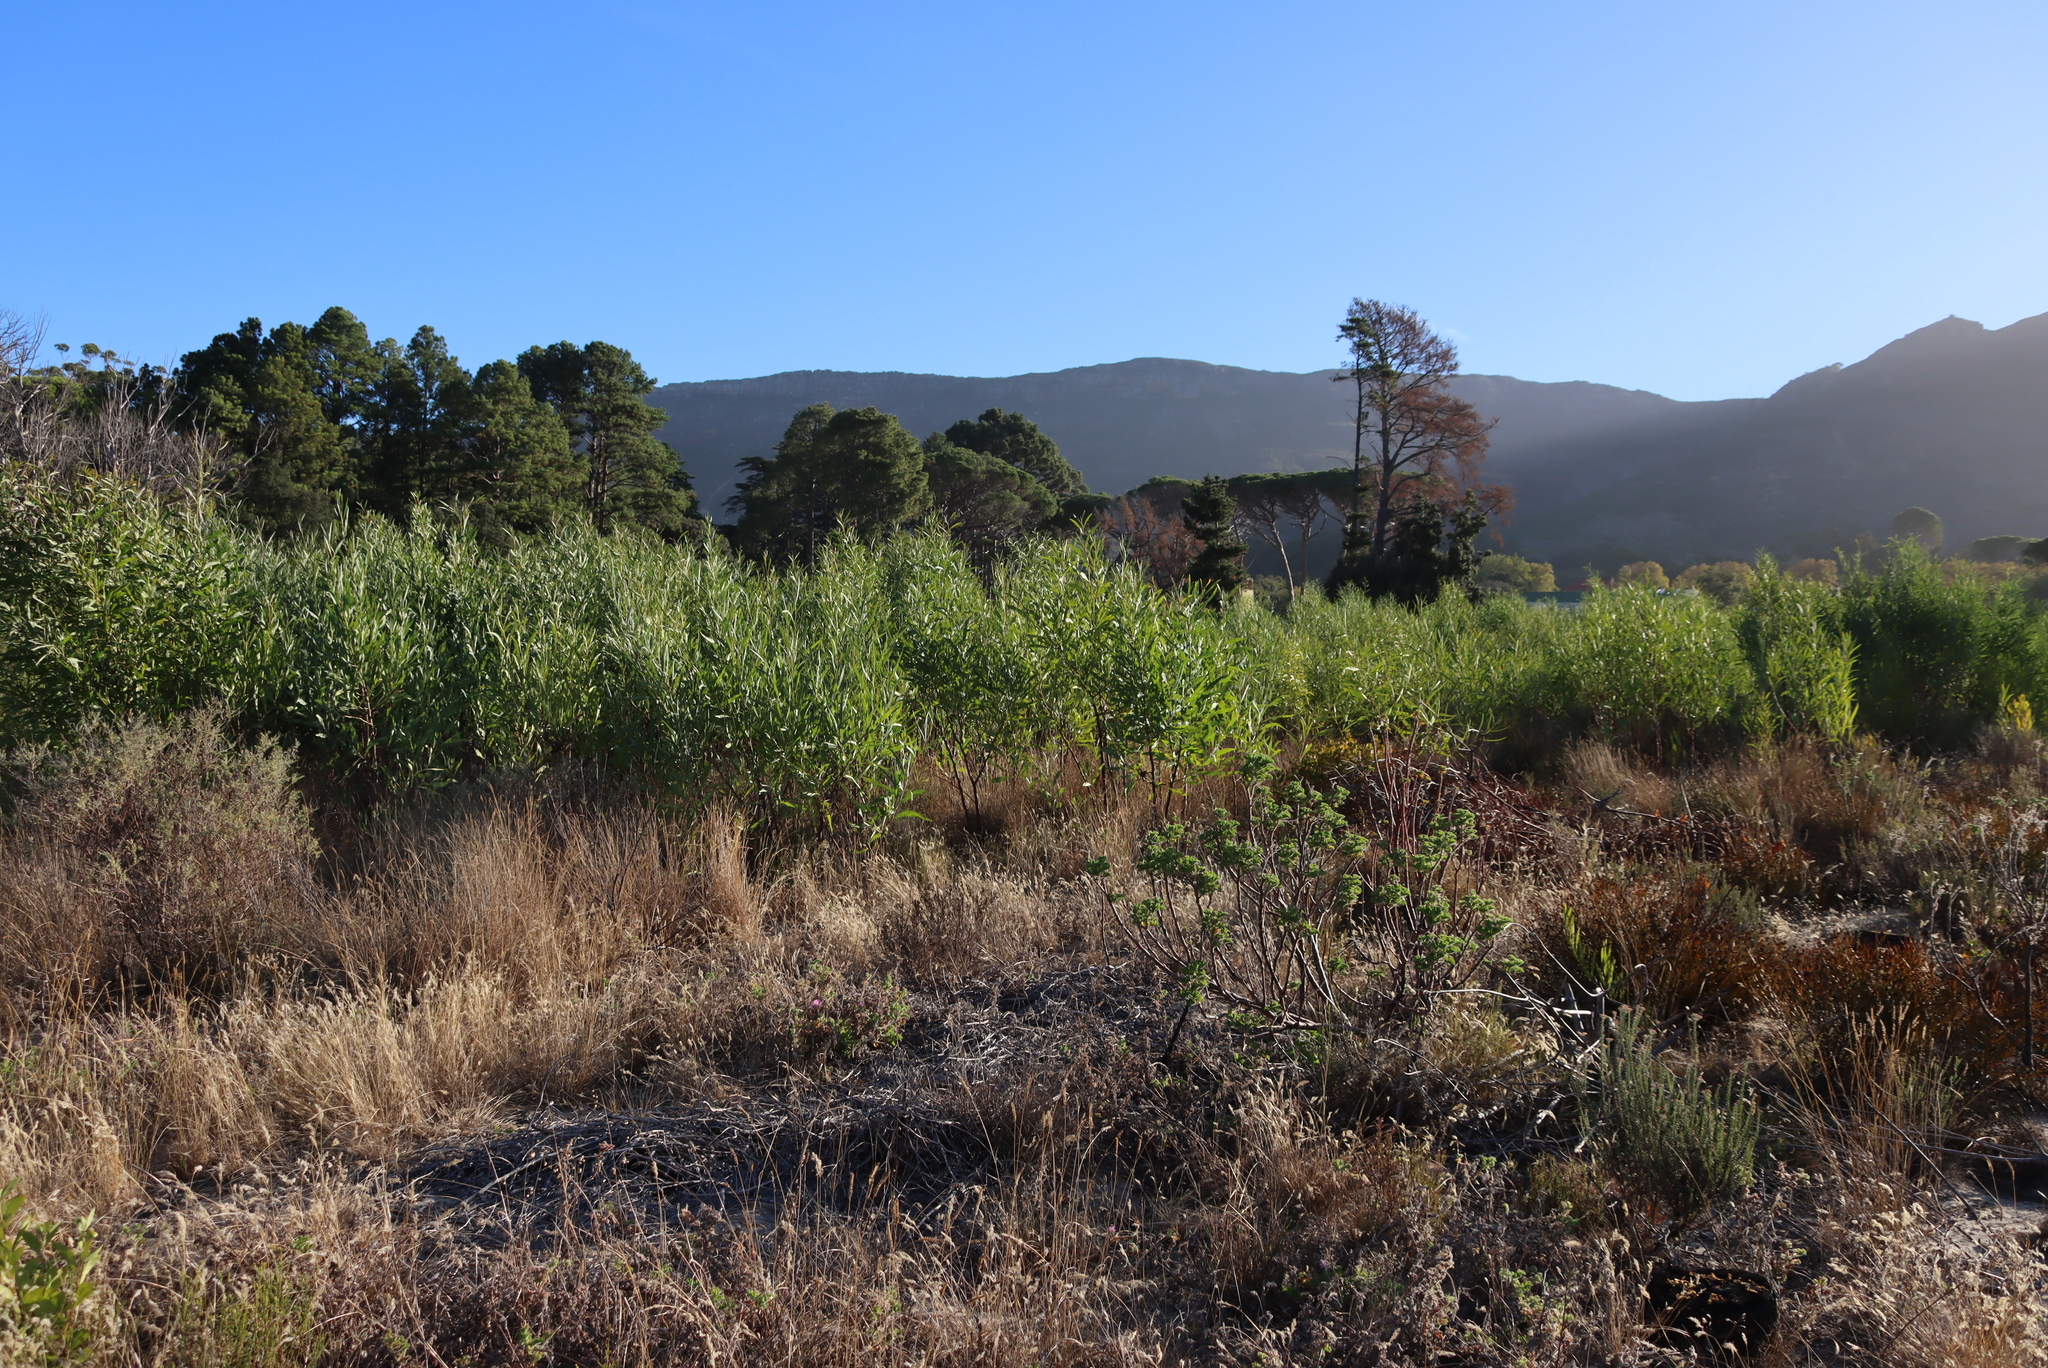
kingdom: Plantae
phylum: Tracheophyta
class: Magnoliopsida
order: Fabales
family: Fabaceae
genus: Acacia
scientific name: Acacia saligna
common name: Orange wattle
